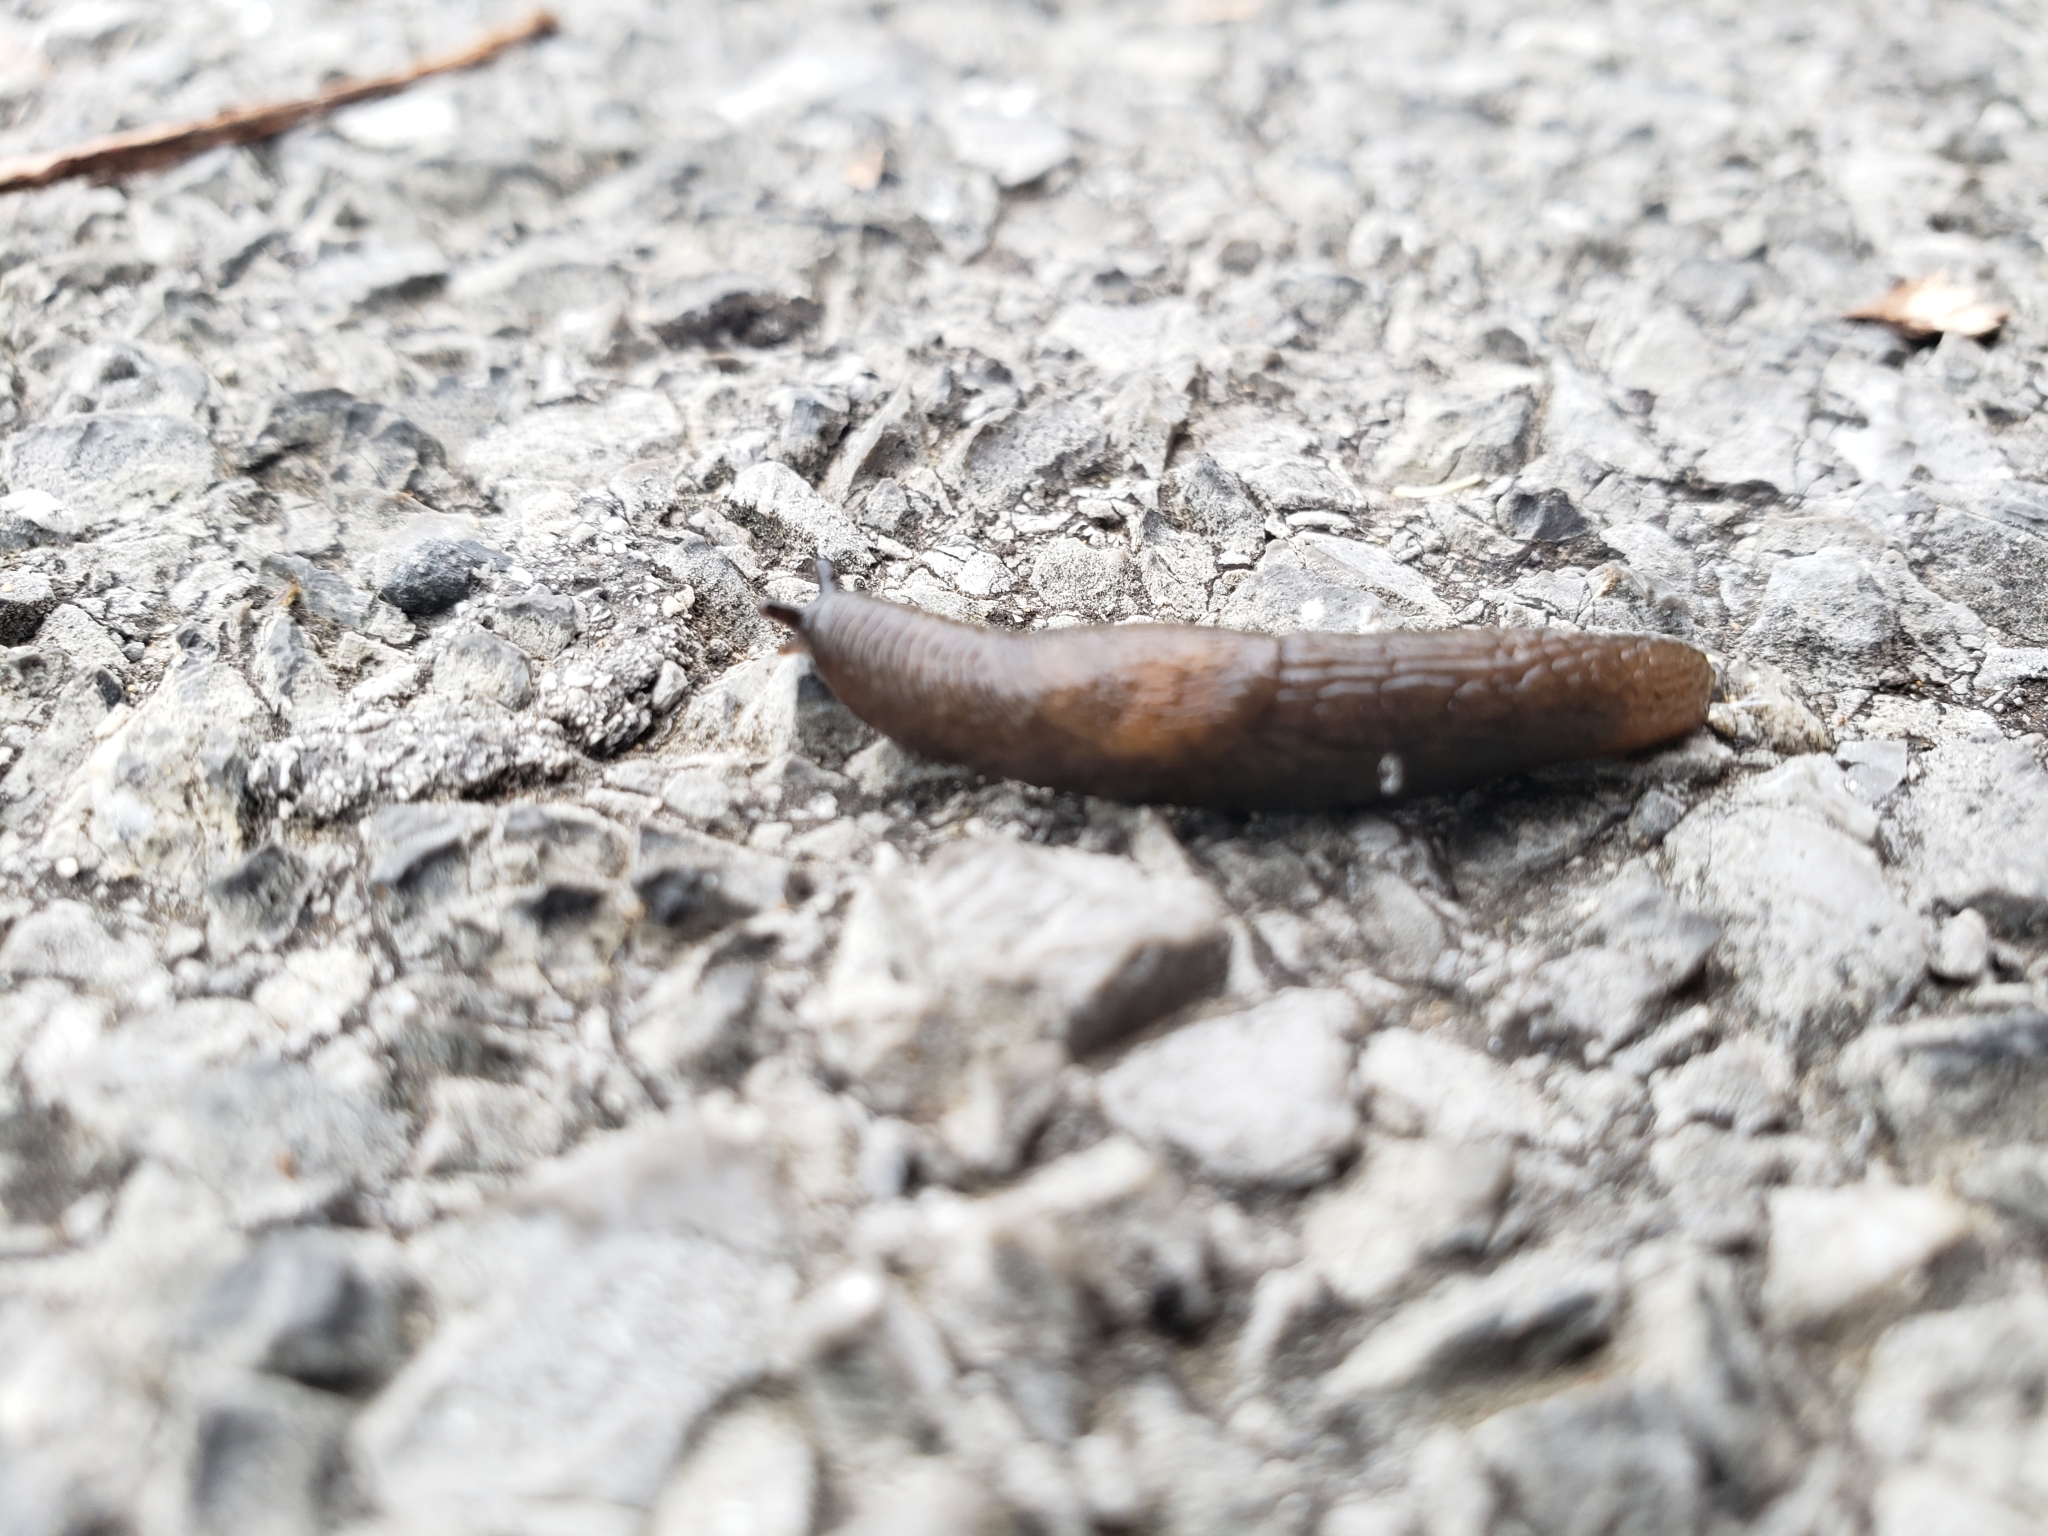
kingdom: Animalia
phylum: Mollusca
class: Gastropoda
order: Stylommatophora
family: Agriolimacidae
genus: Deroceras
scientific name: Deroceras laeve
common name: Marsh slug
